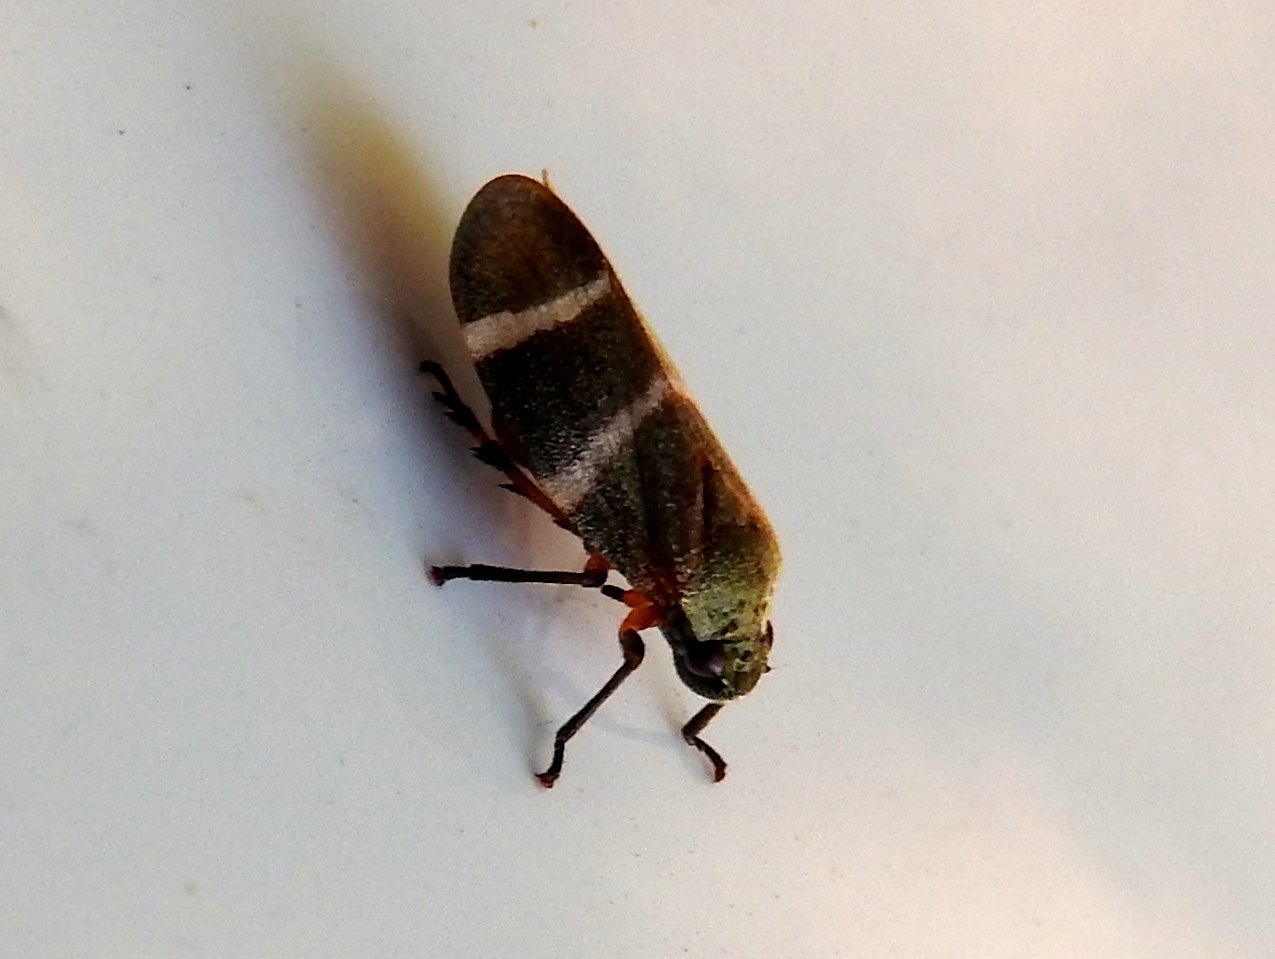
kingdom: Animalia
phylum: Arthropoda
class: Insecta
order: Hemiptera
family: Cercopidae
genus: Aeneolamia
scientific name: Aeneolamia albofasciata
